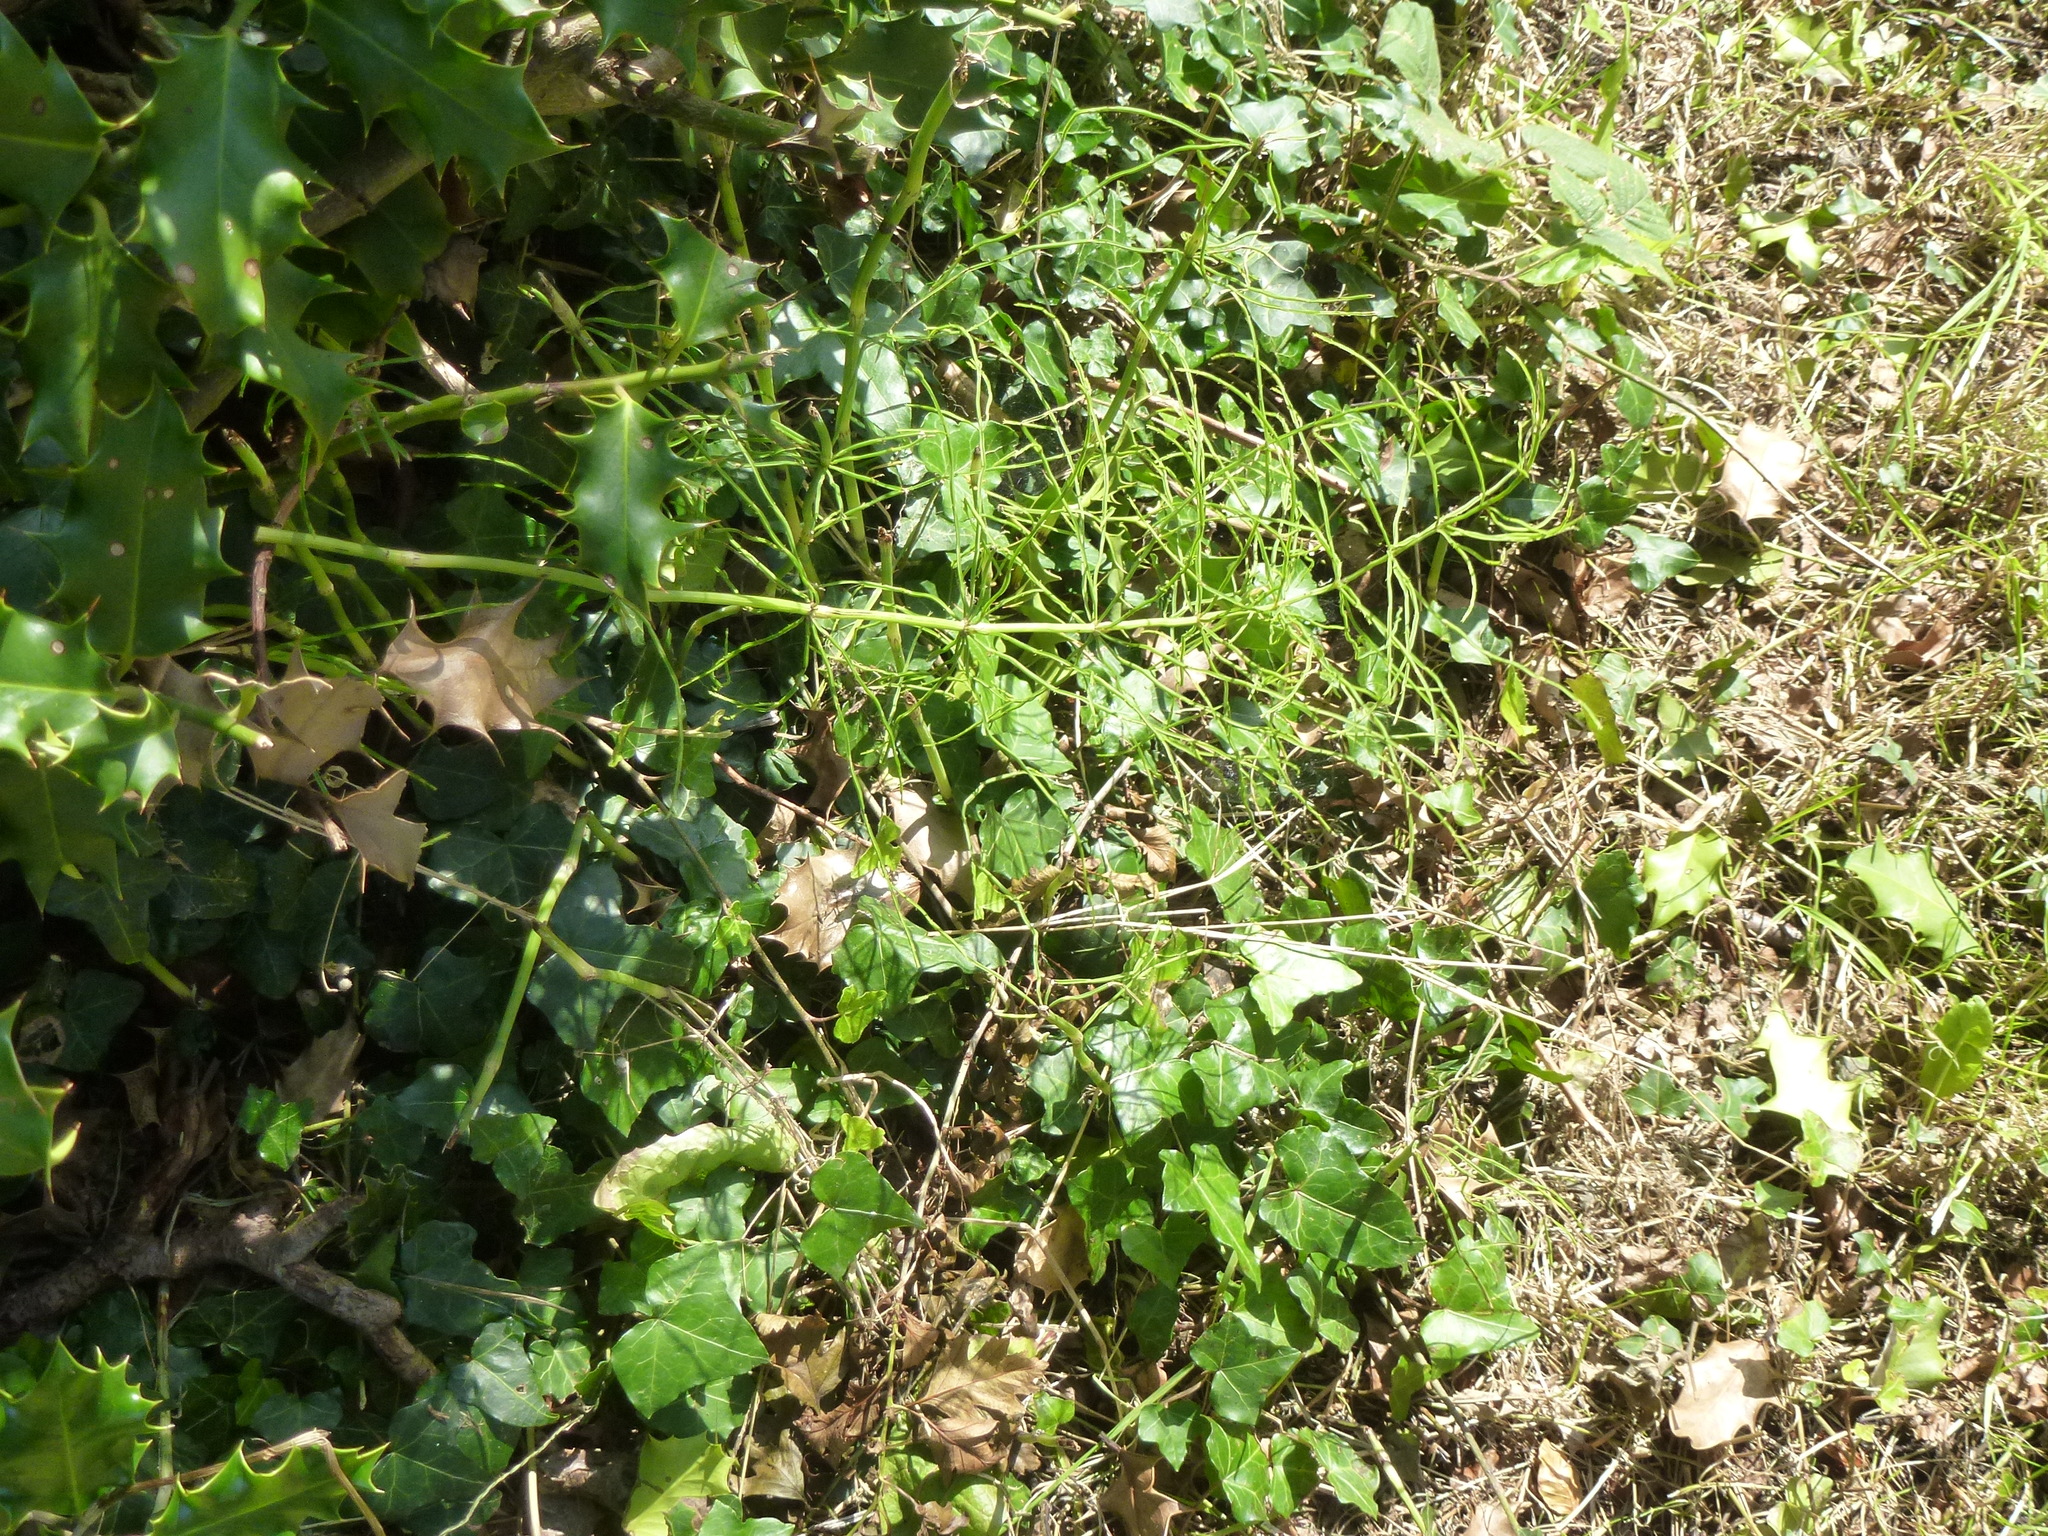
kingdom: Plantae
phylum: Tracheophyta
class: Polypodiopsida
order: Equisetales
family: Equisetaceae
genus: Equisetum
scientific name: Equisetum arvense
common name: Field horsetail
